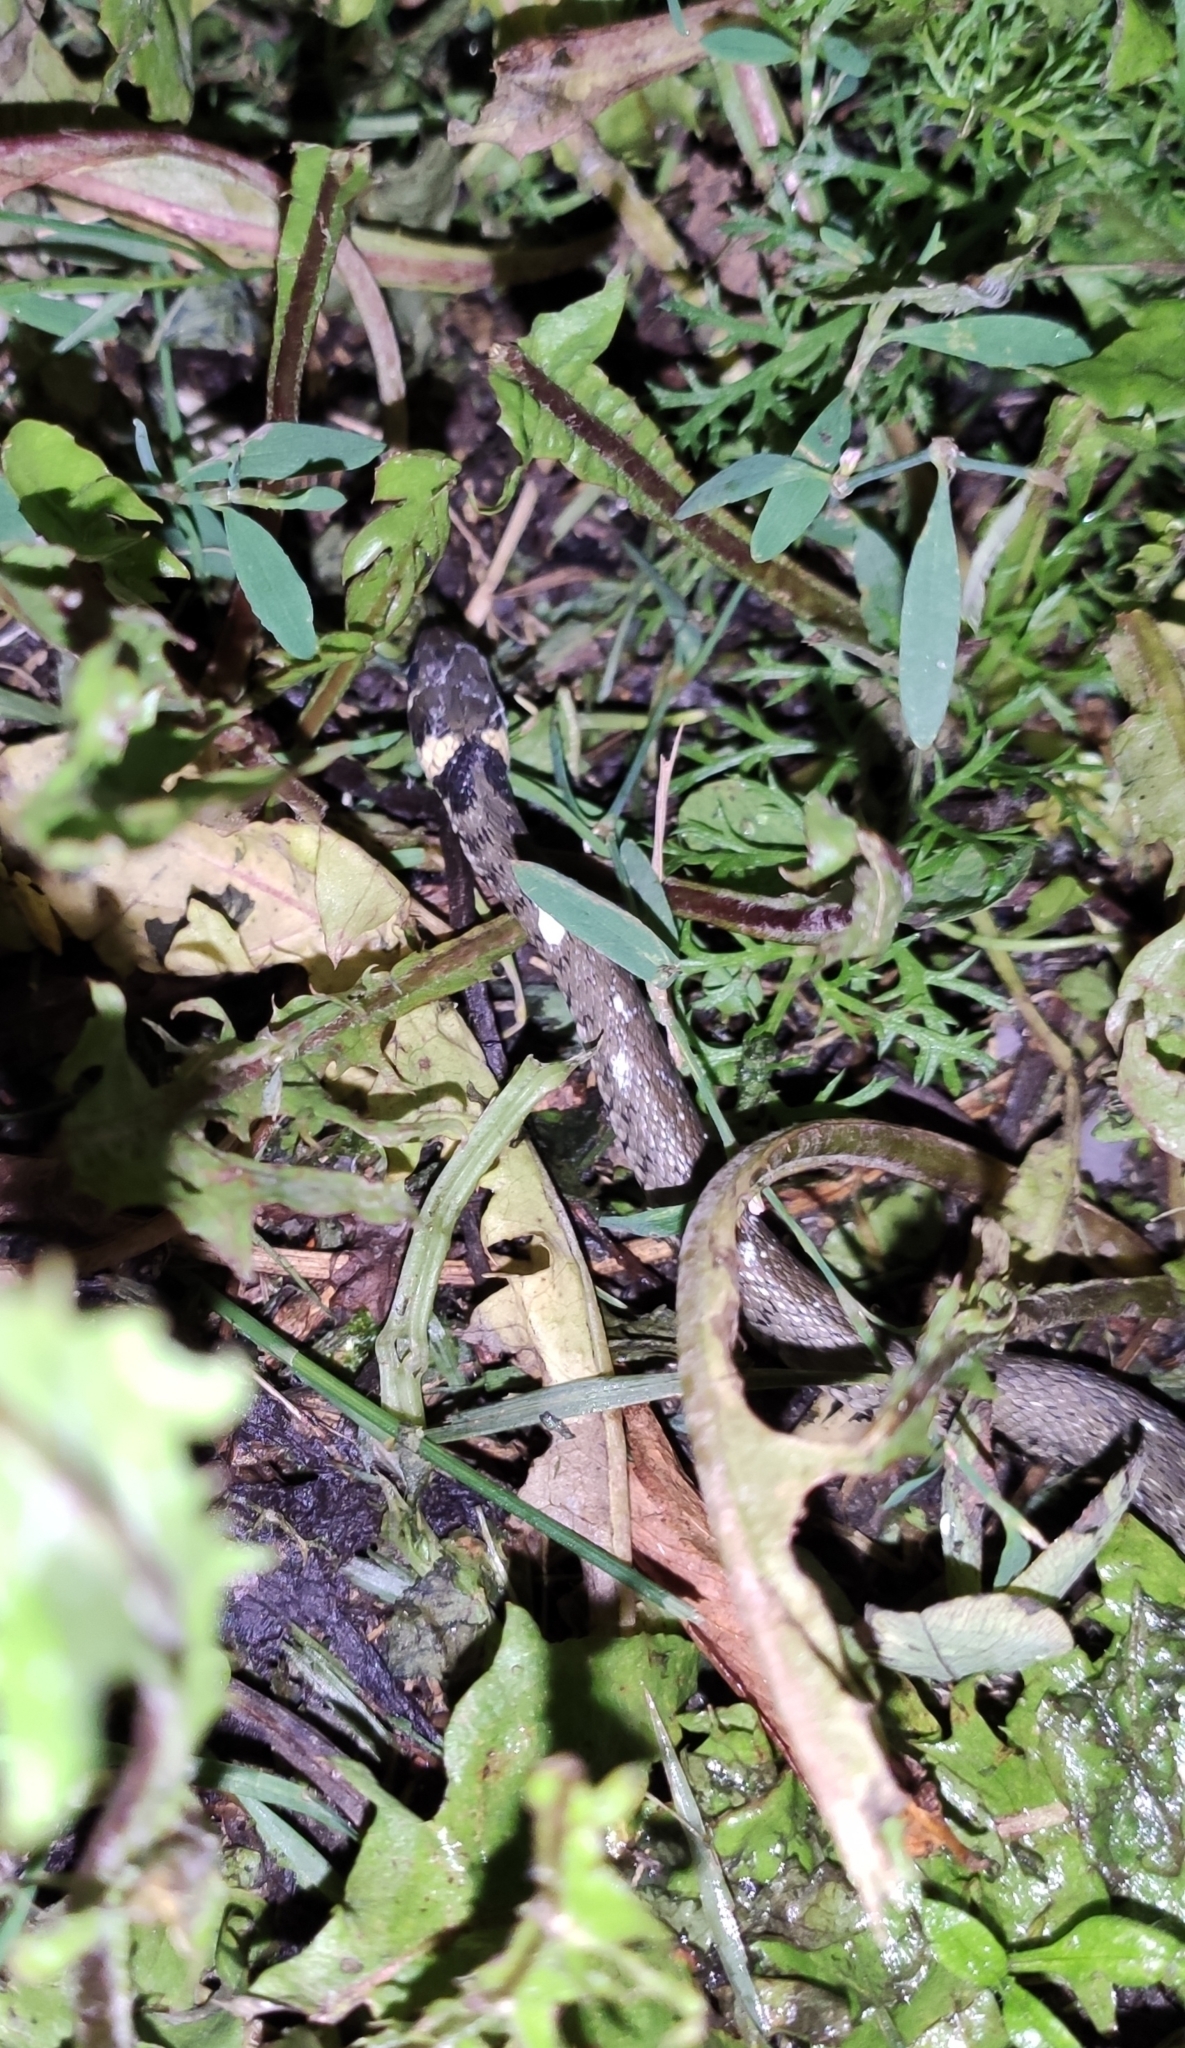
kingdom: Animalia
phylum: Chordata
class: Squamata
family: Colubridae
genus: Natrix
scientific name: Natrix natrix
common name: Grass snake
